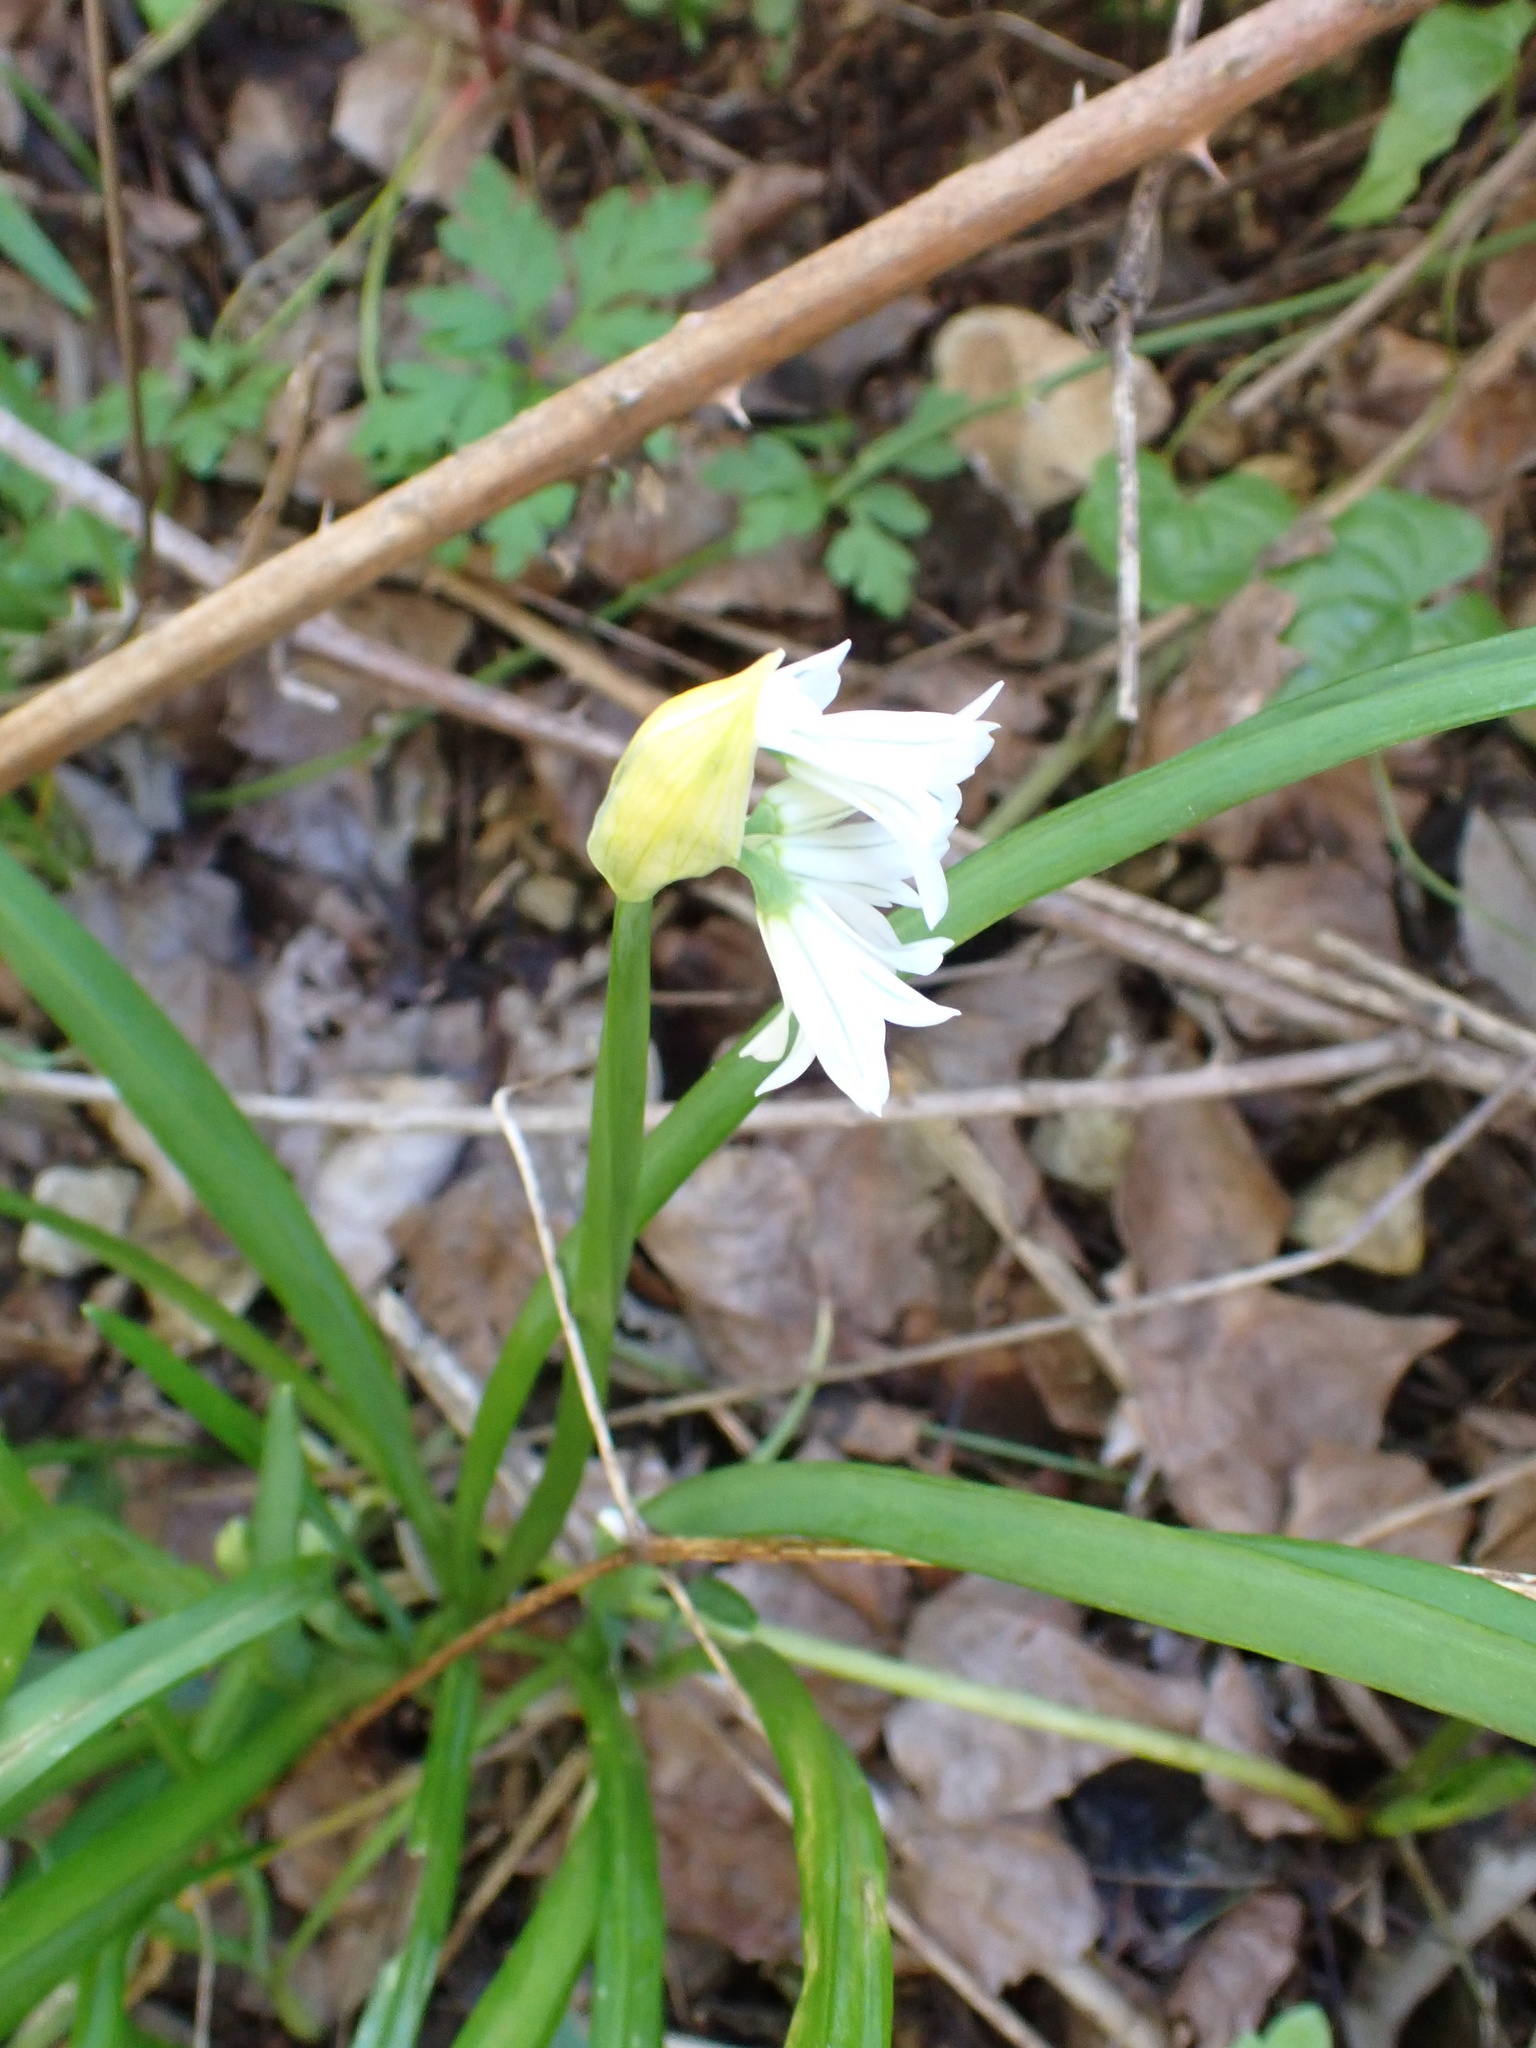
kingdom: Plantae
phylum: Tracheophyta
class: Liliopsida
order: Asparagales
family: Amaryllidaceae
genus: Allium
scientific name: Allium triquetrum
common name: Three-cornered garlic
